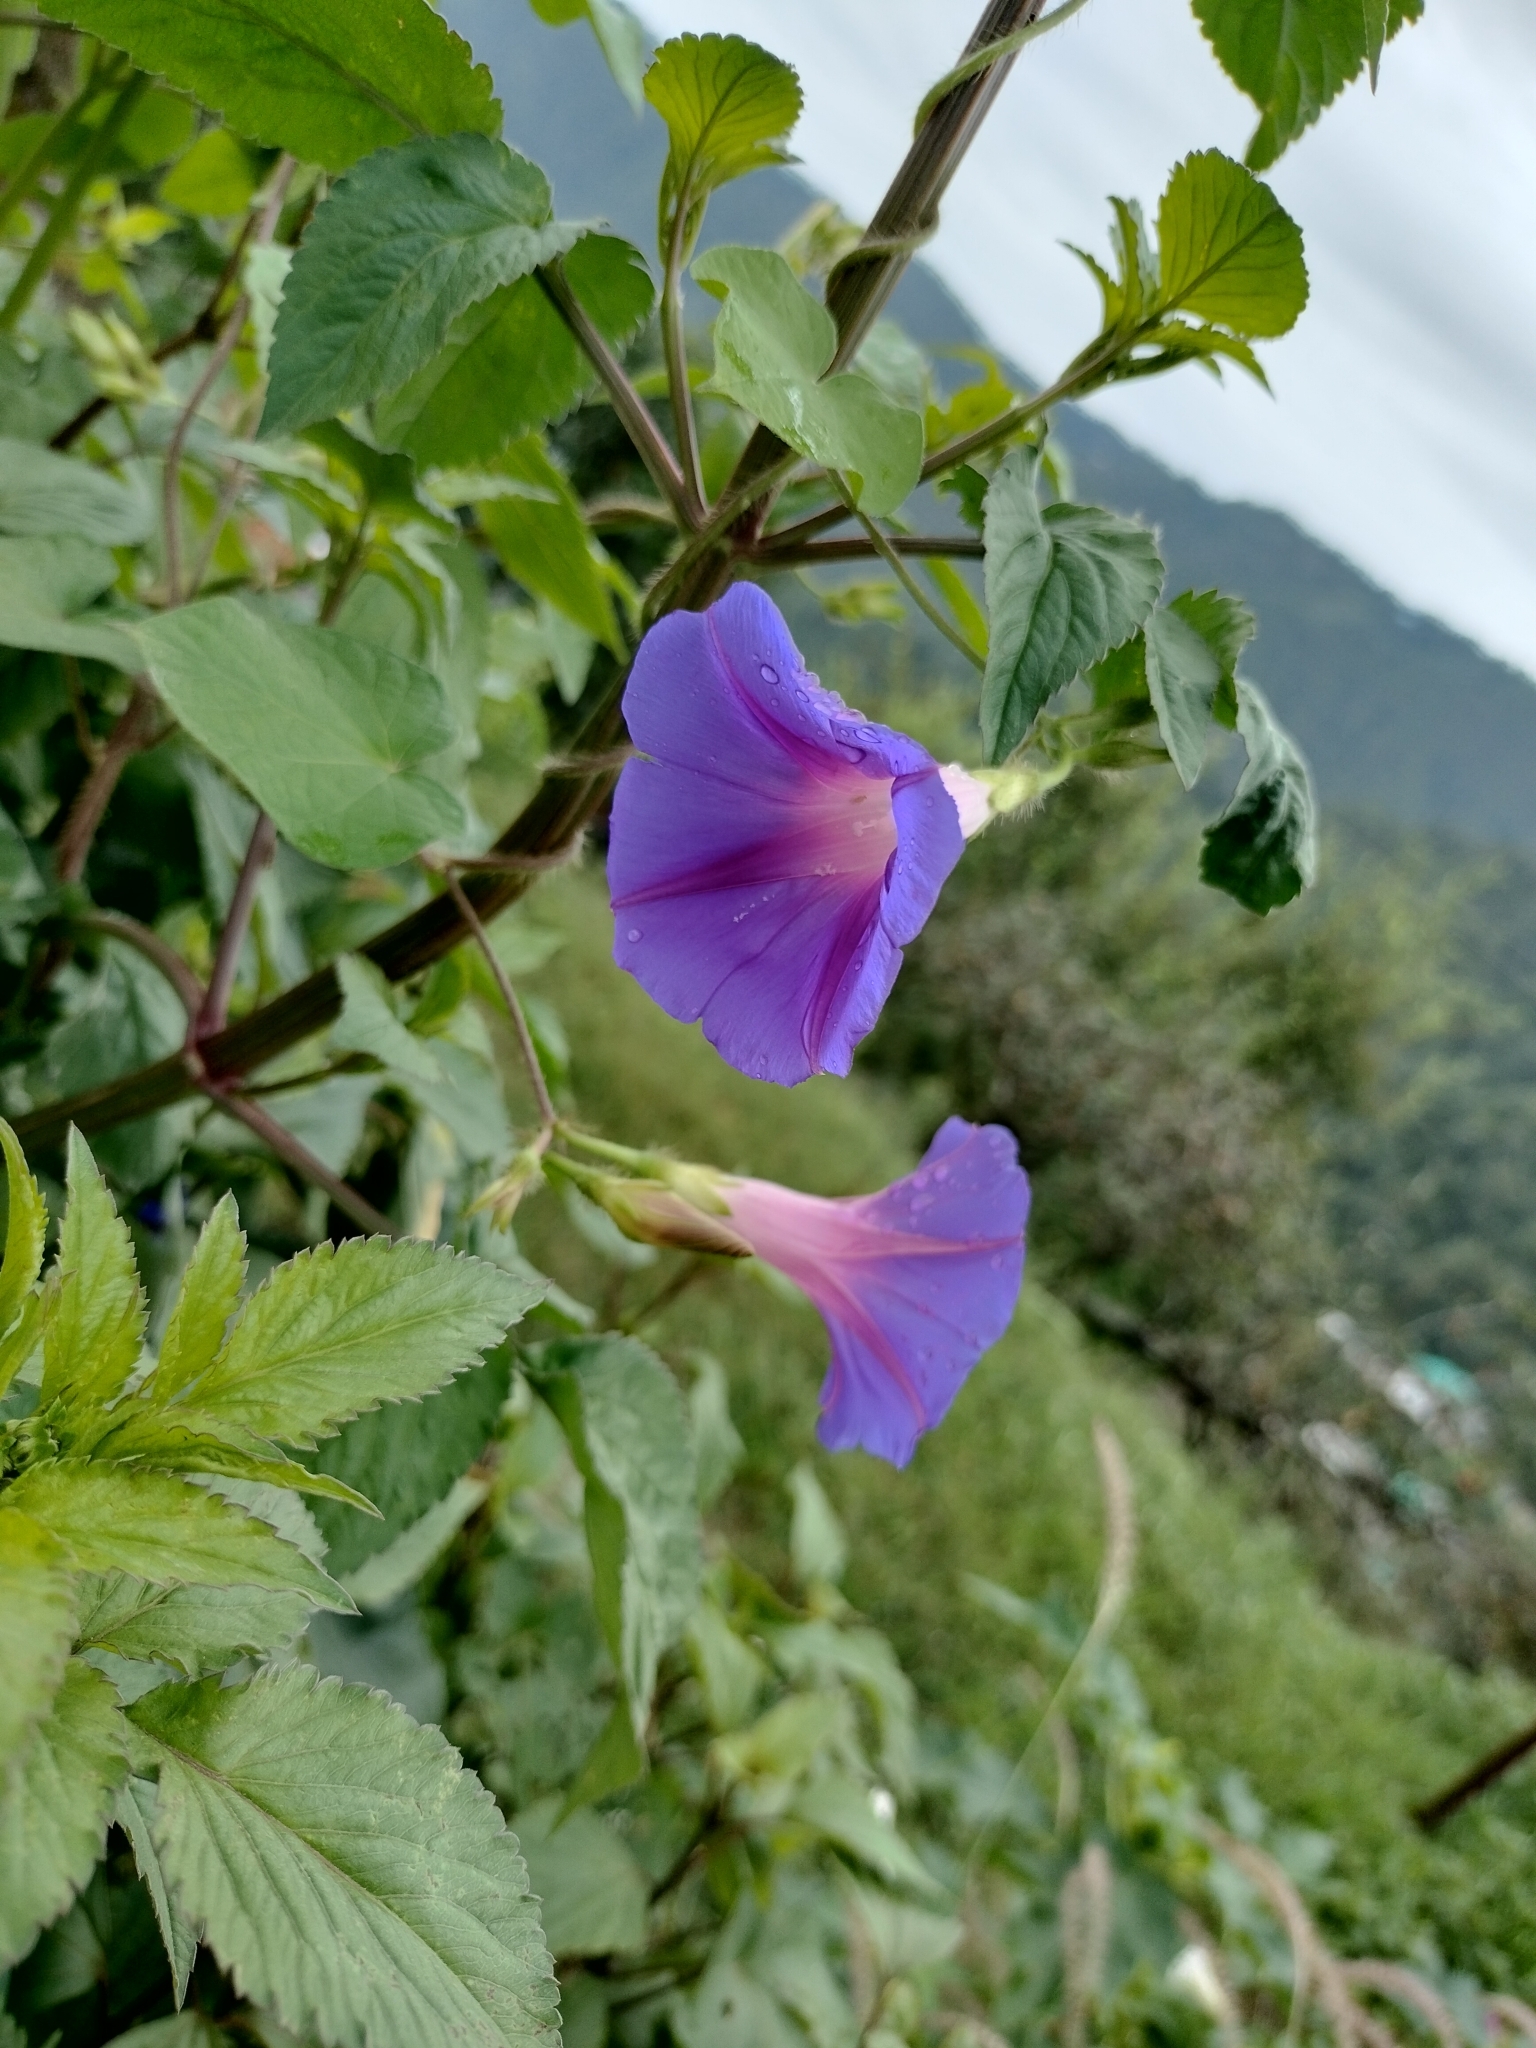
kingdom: Plantae
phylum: Tracheophyta
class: Magnoliopsida
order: Solanales
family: Convolvulaceae
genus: Ipomoea
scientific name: Ipomoea purpurea
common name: Common morning-glory
